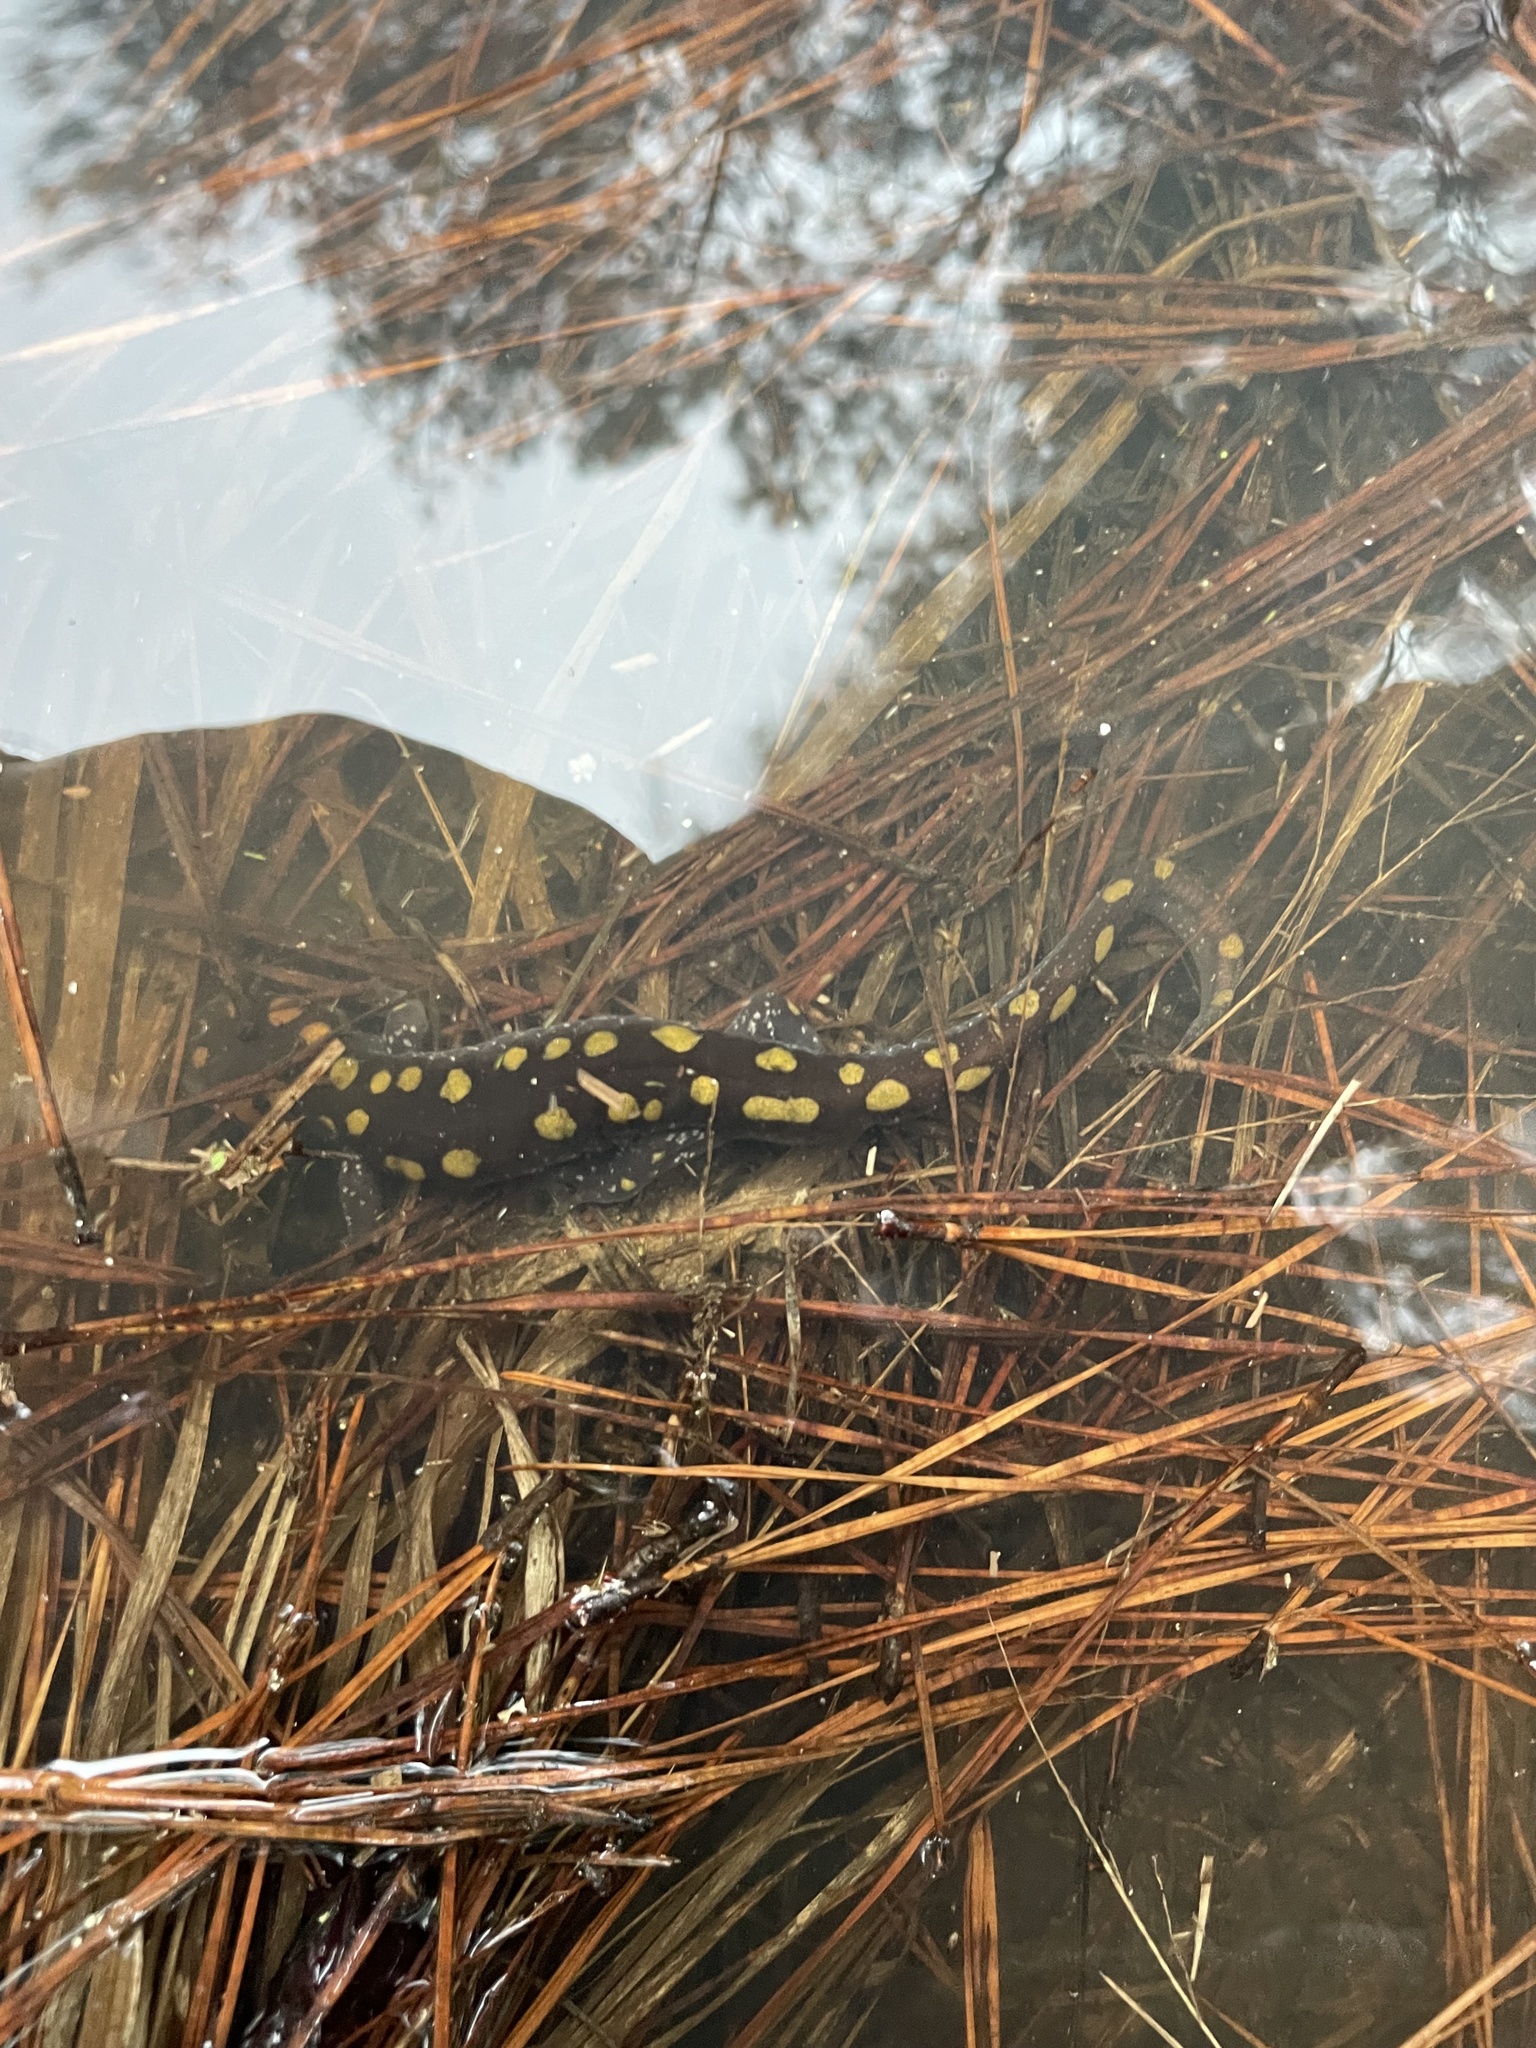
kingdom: Animalia
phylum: Chordata
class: Amphibia
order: Caudata
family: Ambystomatidae
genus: Ambystoma
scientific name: Ambystoma maculatum
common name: Spotted salamander
